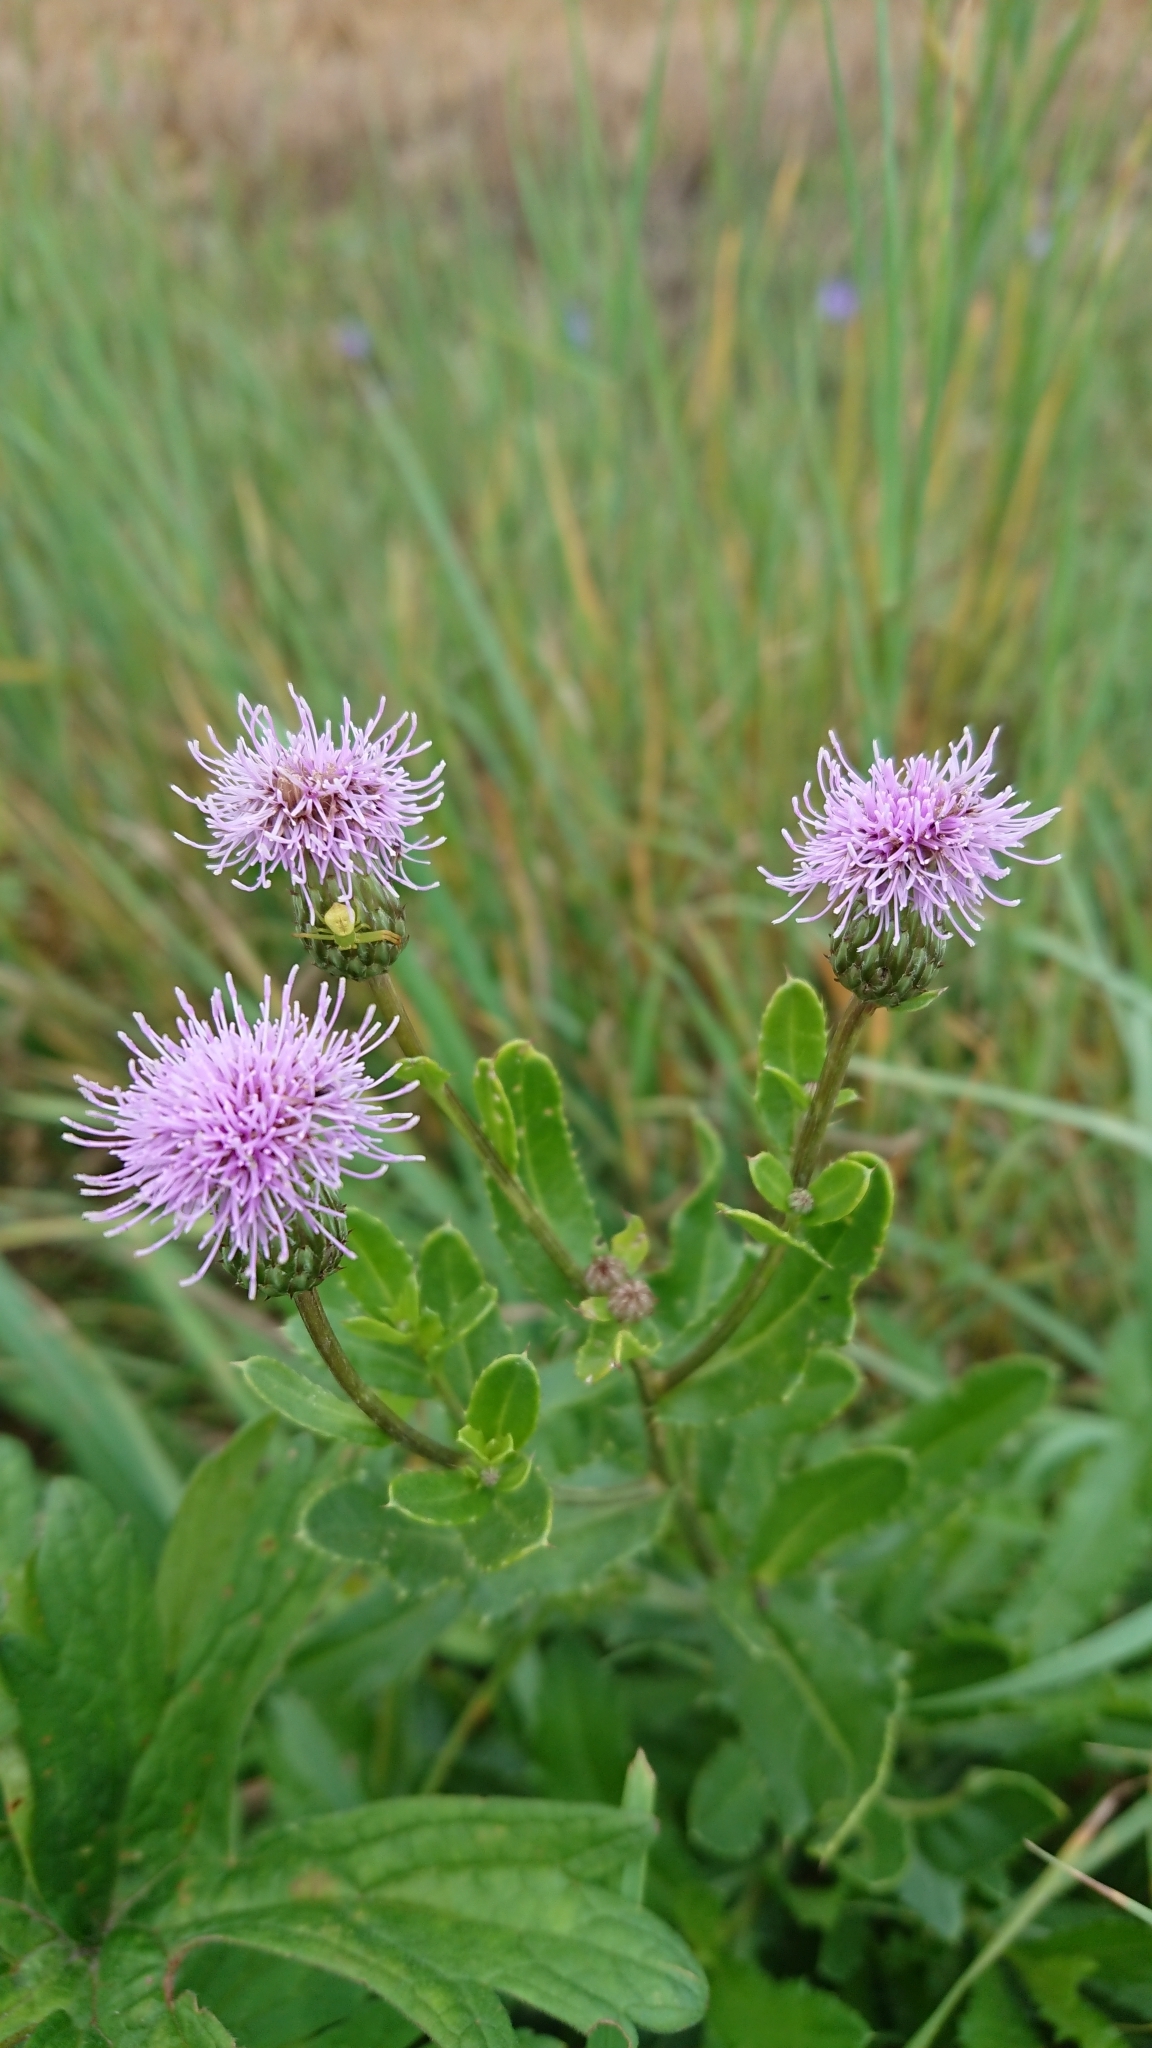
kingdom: Plantae
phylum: Tracheophyta
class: Magnoliopsida
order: Asterales
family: Asteraceae
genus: Cirsium
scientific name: Cirsium arvense
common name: Creeping thistle
